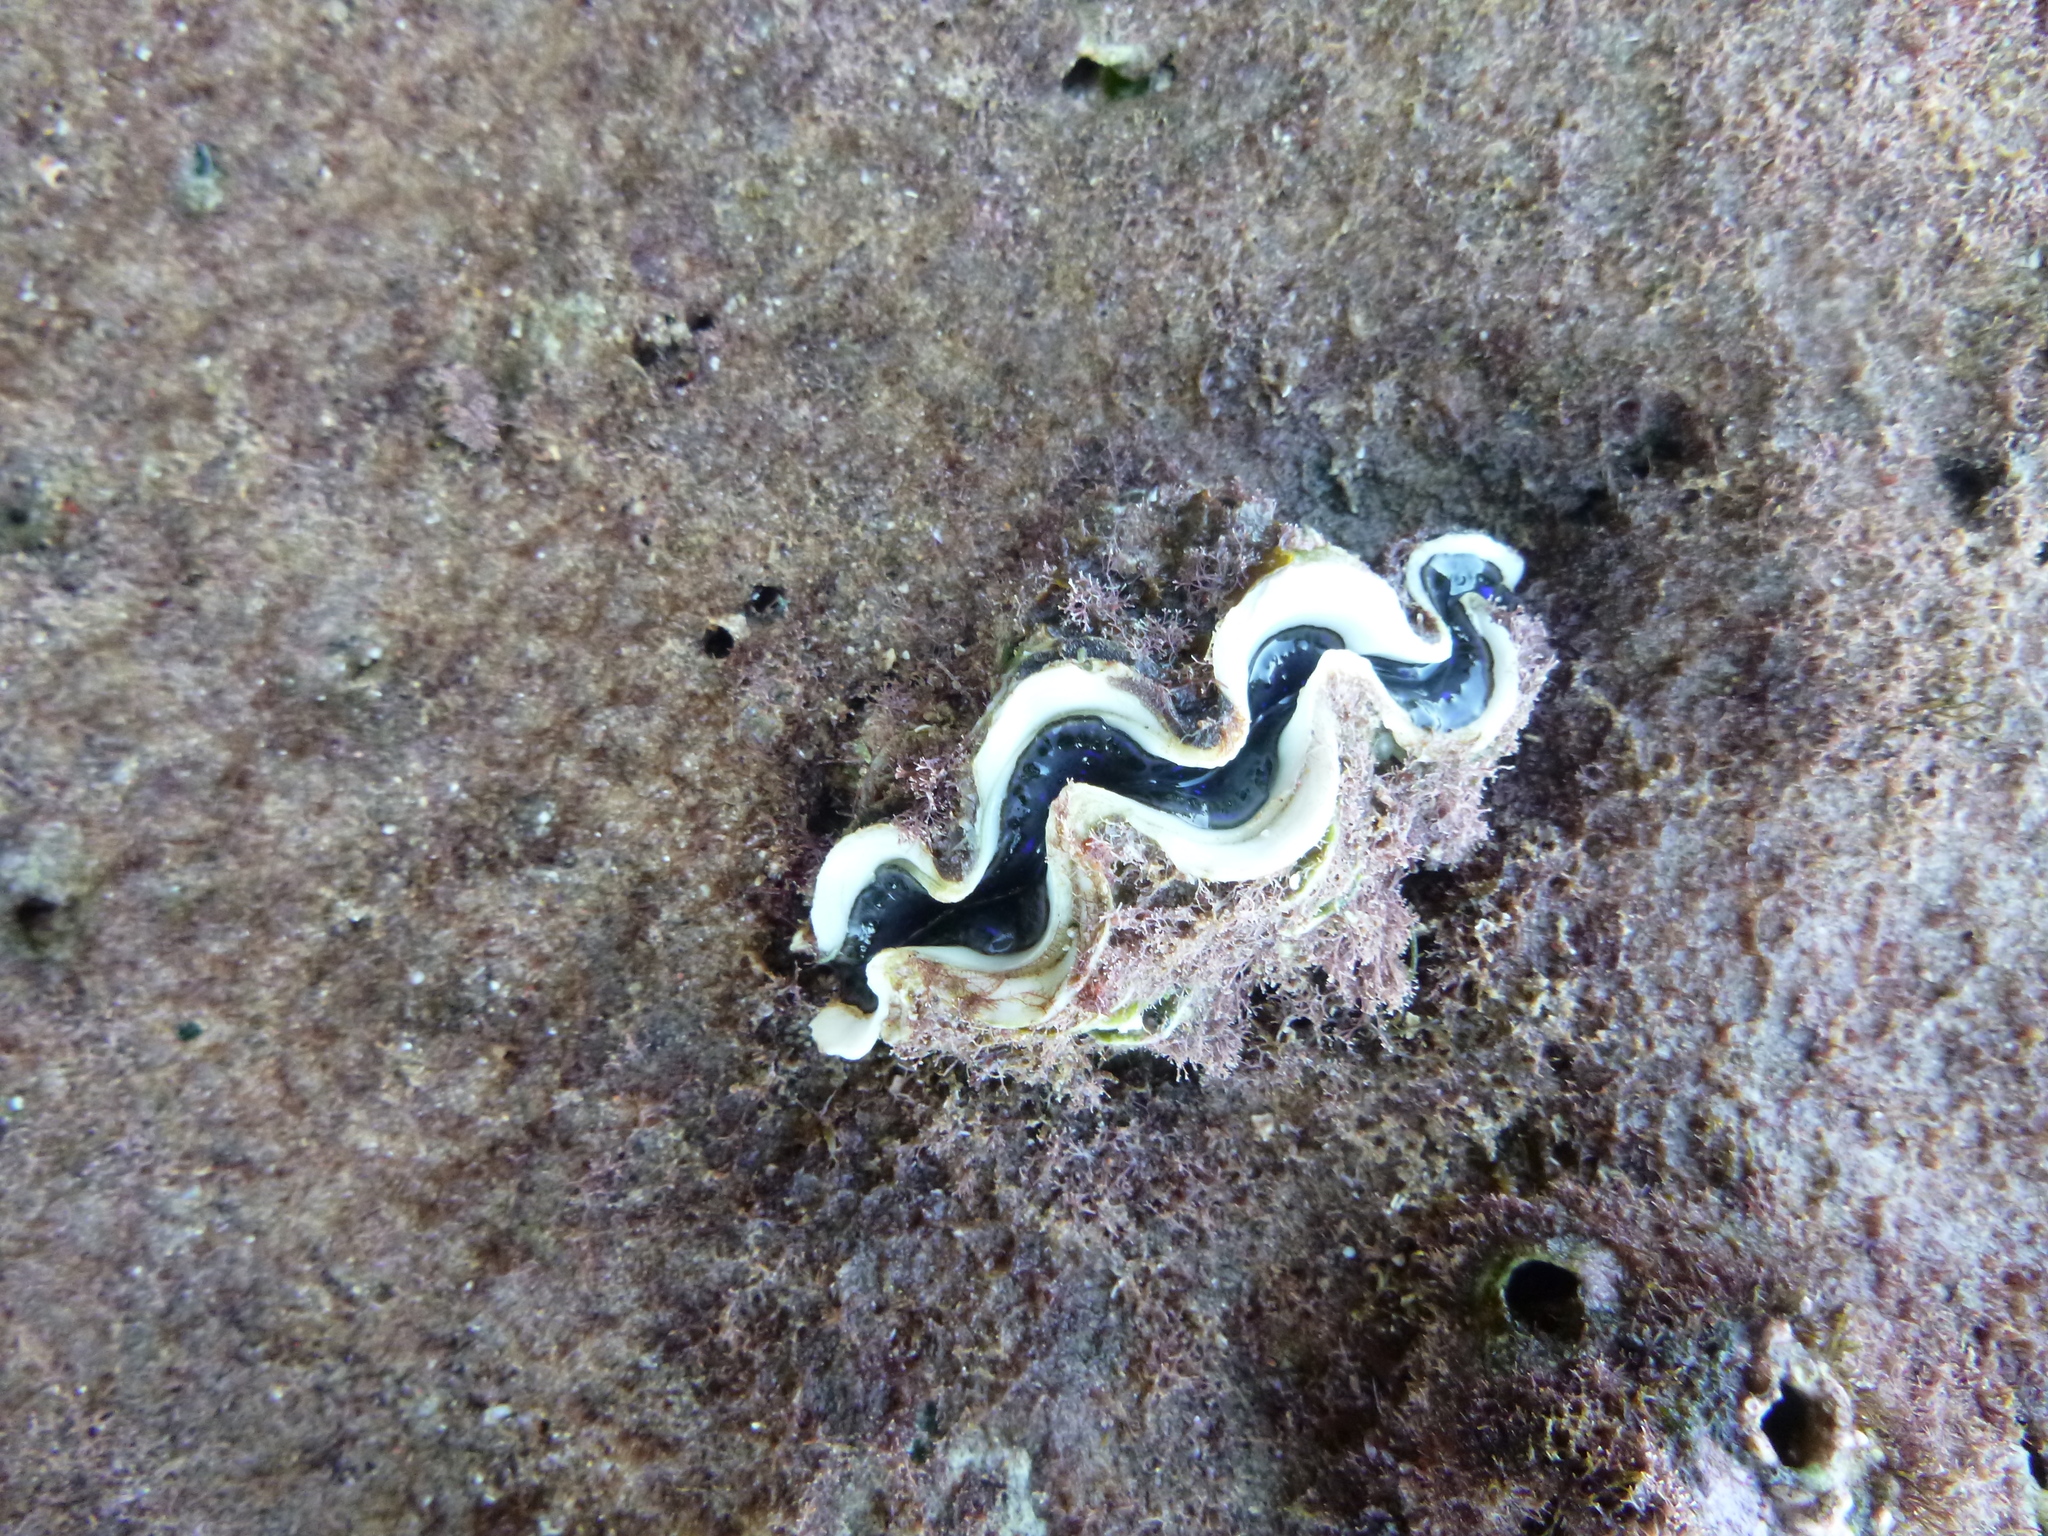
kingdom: Animalia
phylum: Mollusca
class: Bivalvia
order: Cardiida
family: Cardiidae
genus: Tridacna
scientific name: Tridacna maxima
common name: Small giant clam
